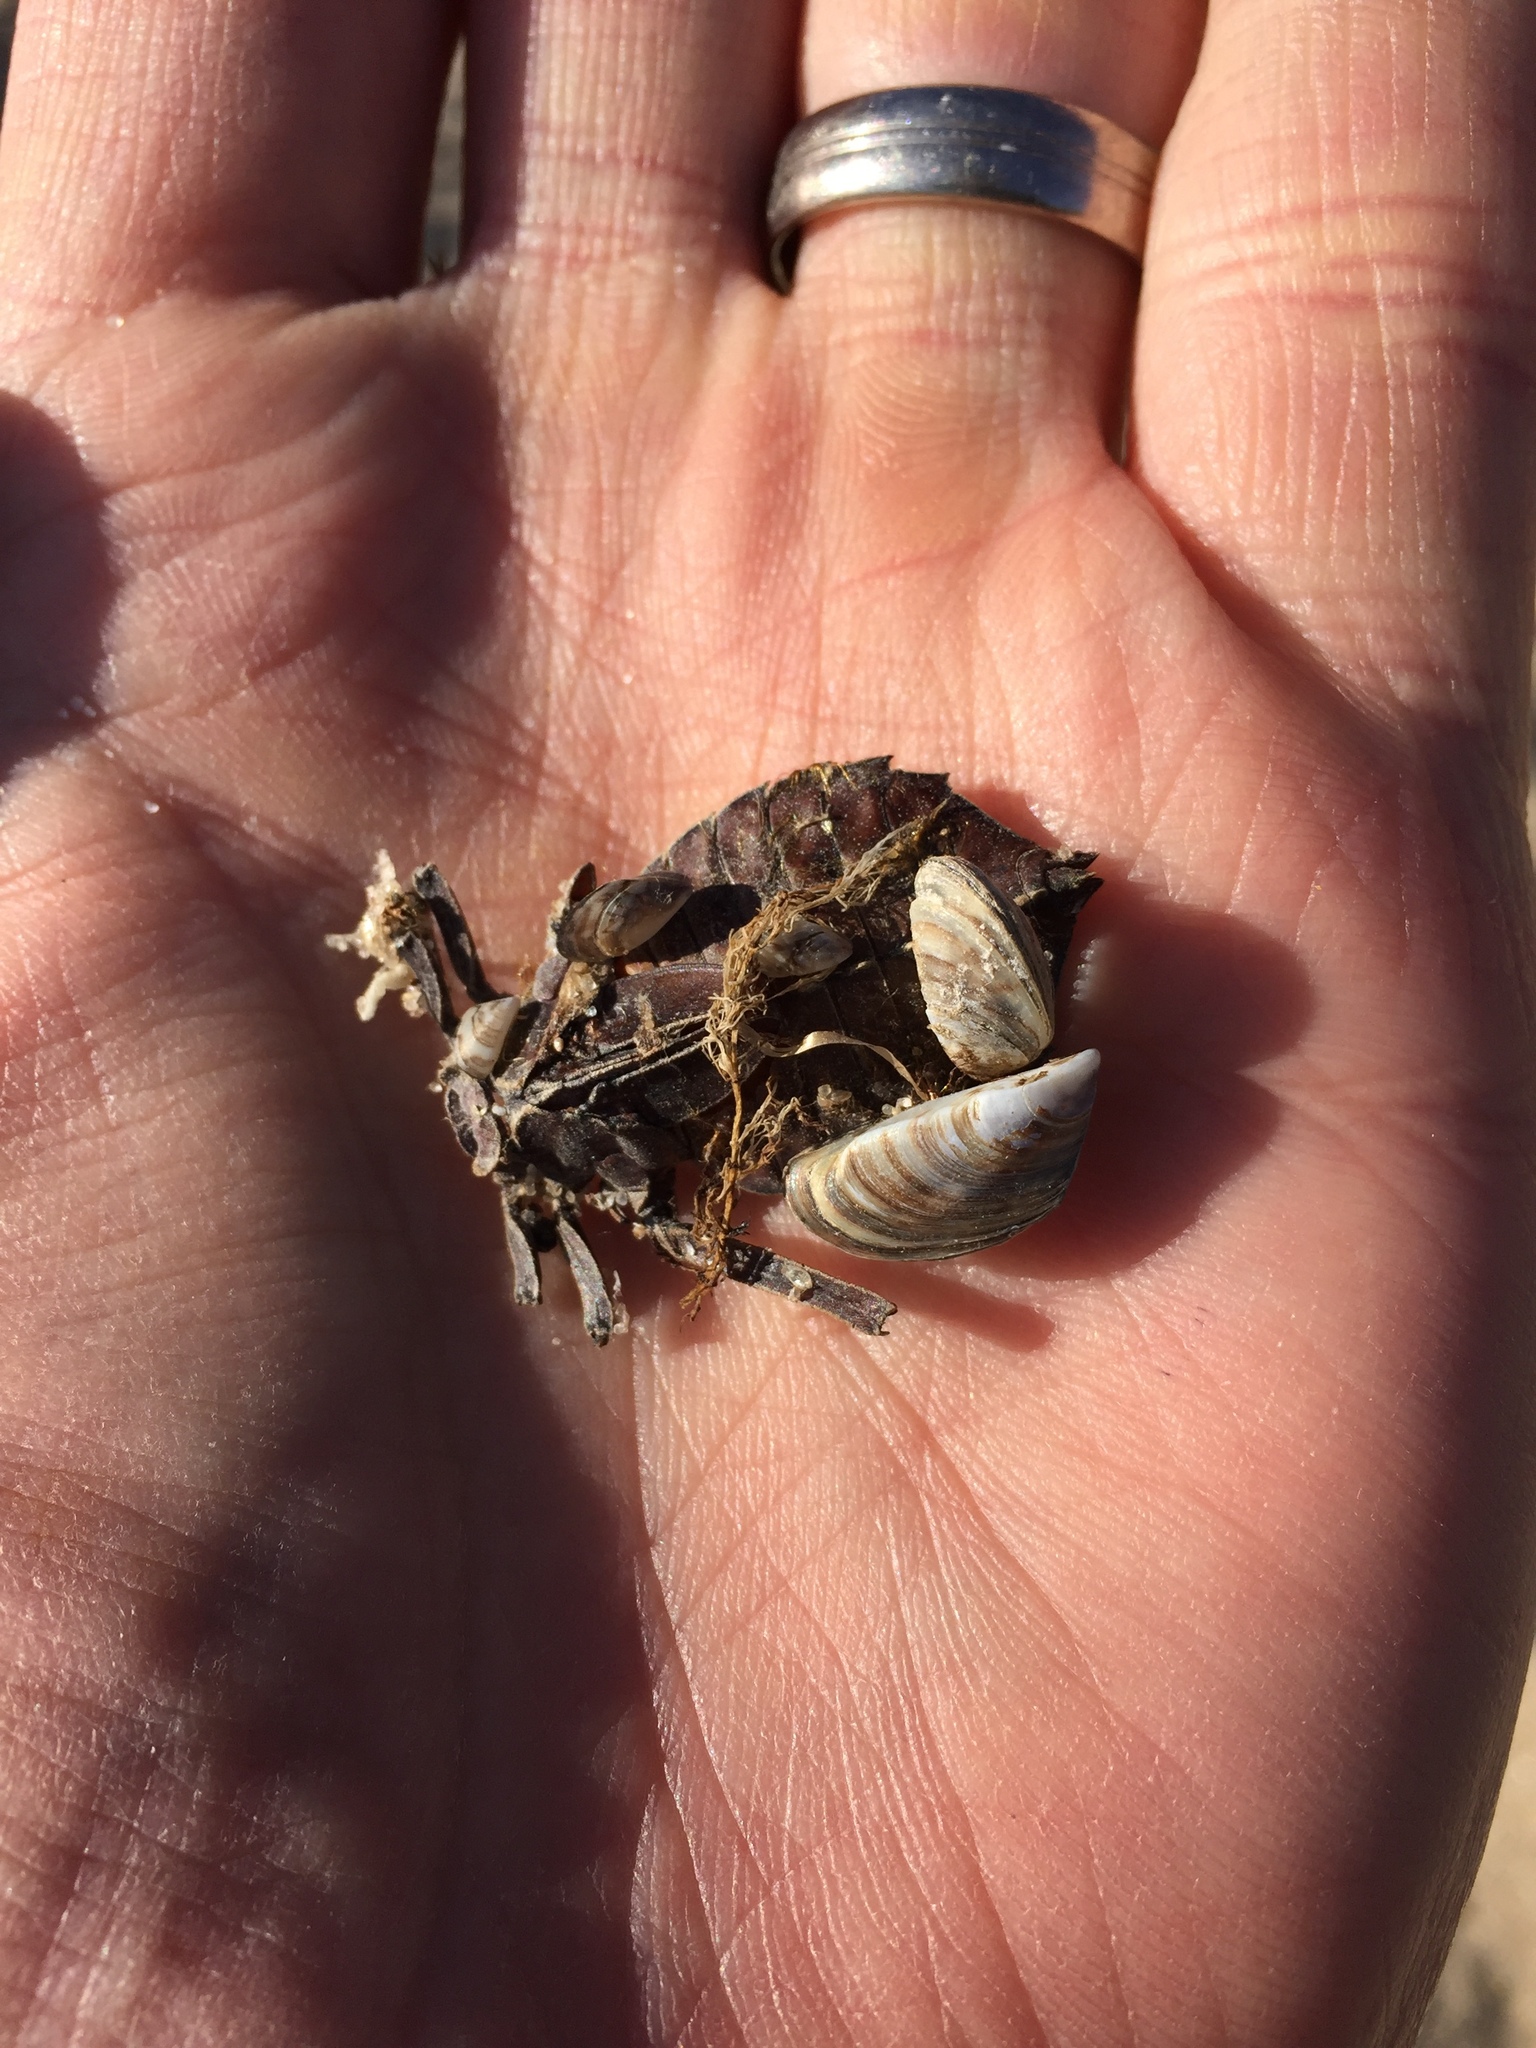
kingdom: Animalia
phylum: Mollusca
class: Bivalvia
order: Myida
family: Dreissenidae
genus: Dreissena
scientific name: Dreissena polymorpha
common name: Zebra mussel
